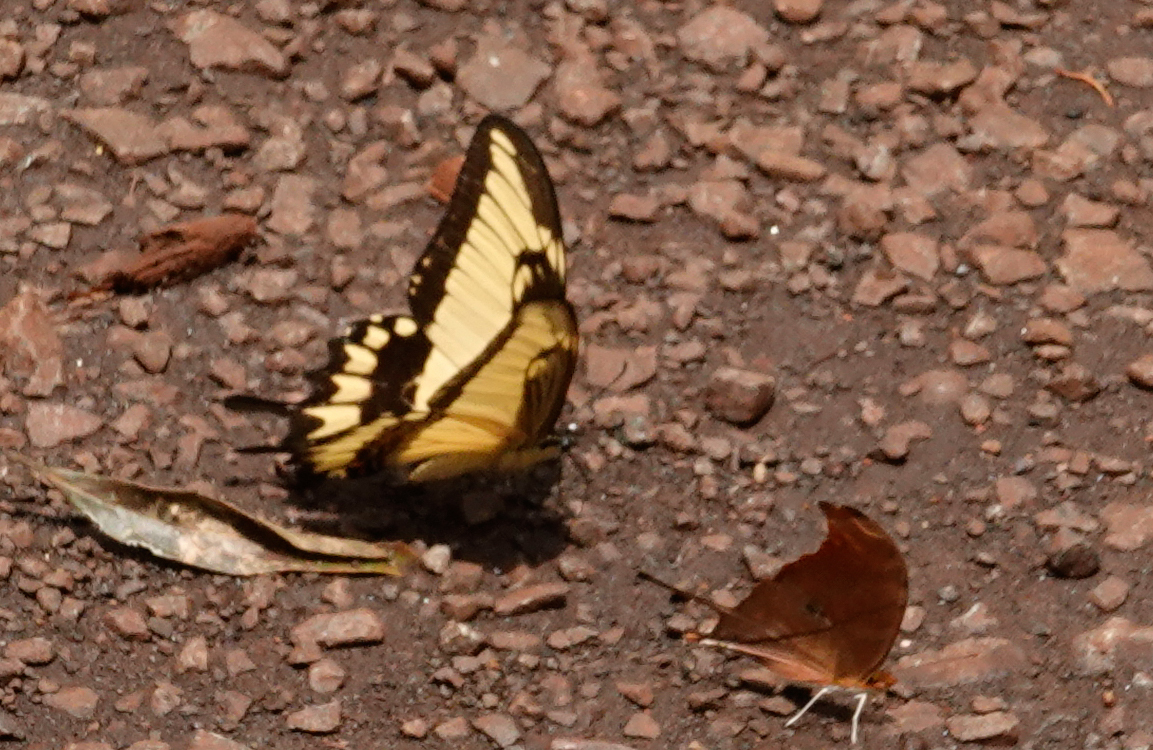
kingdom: Animalia
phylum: Arthropoda
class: Insecta
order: Lepidoptera
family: Papilionidae
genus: Papilio
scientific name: Papilio astyalus
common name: Astyalus swallowtail
